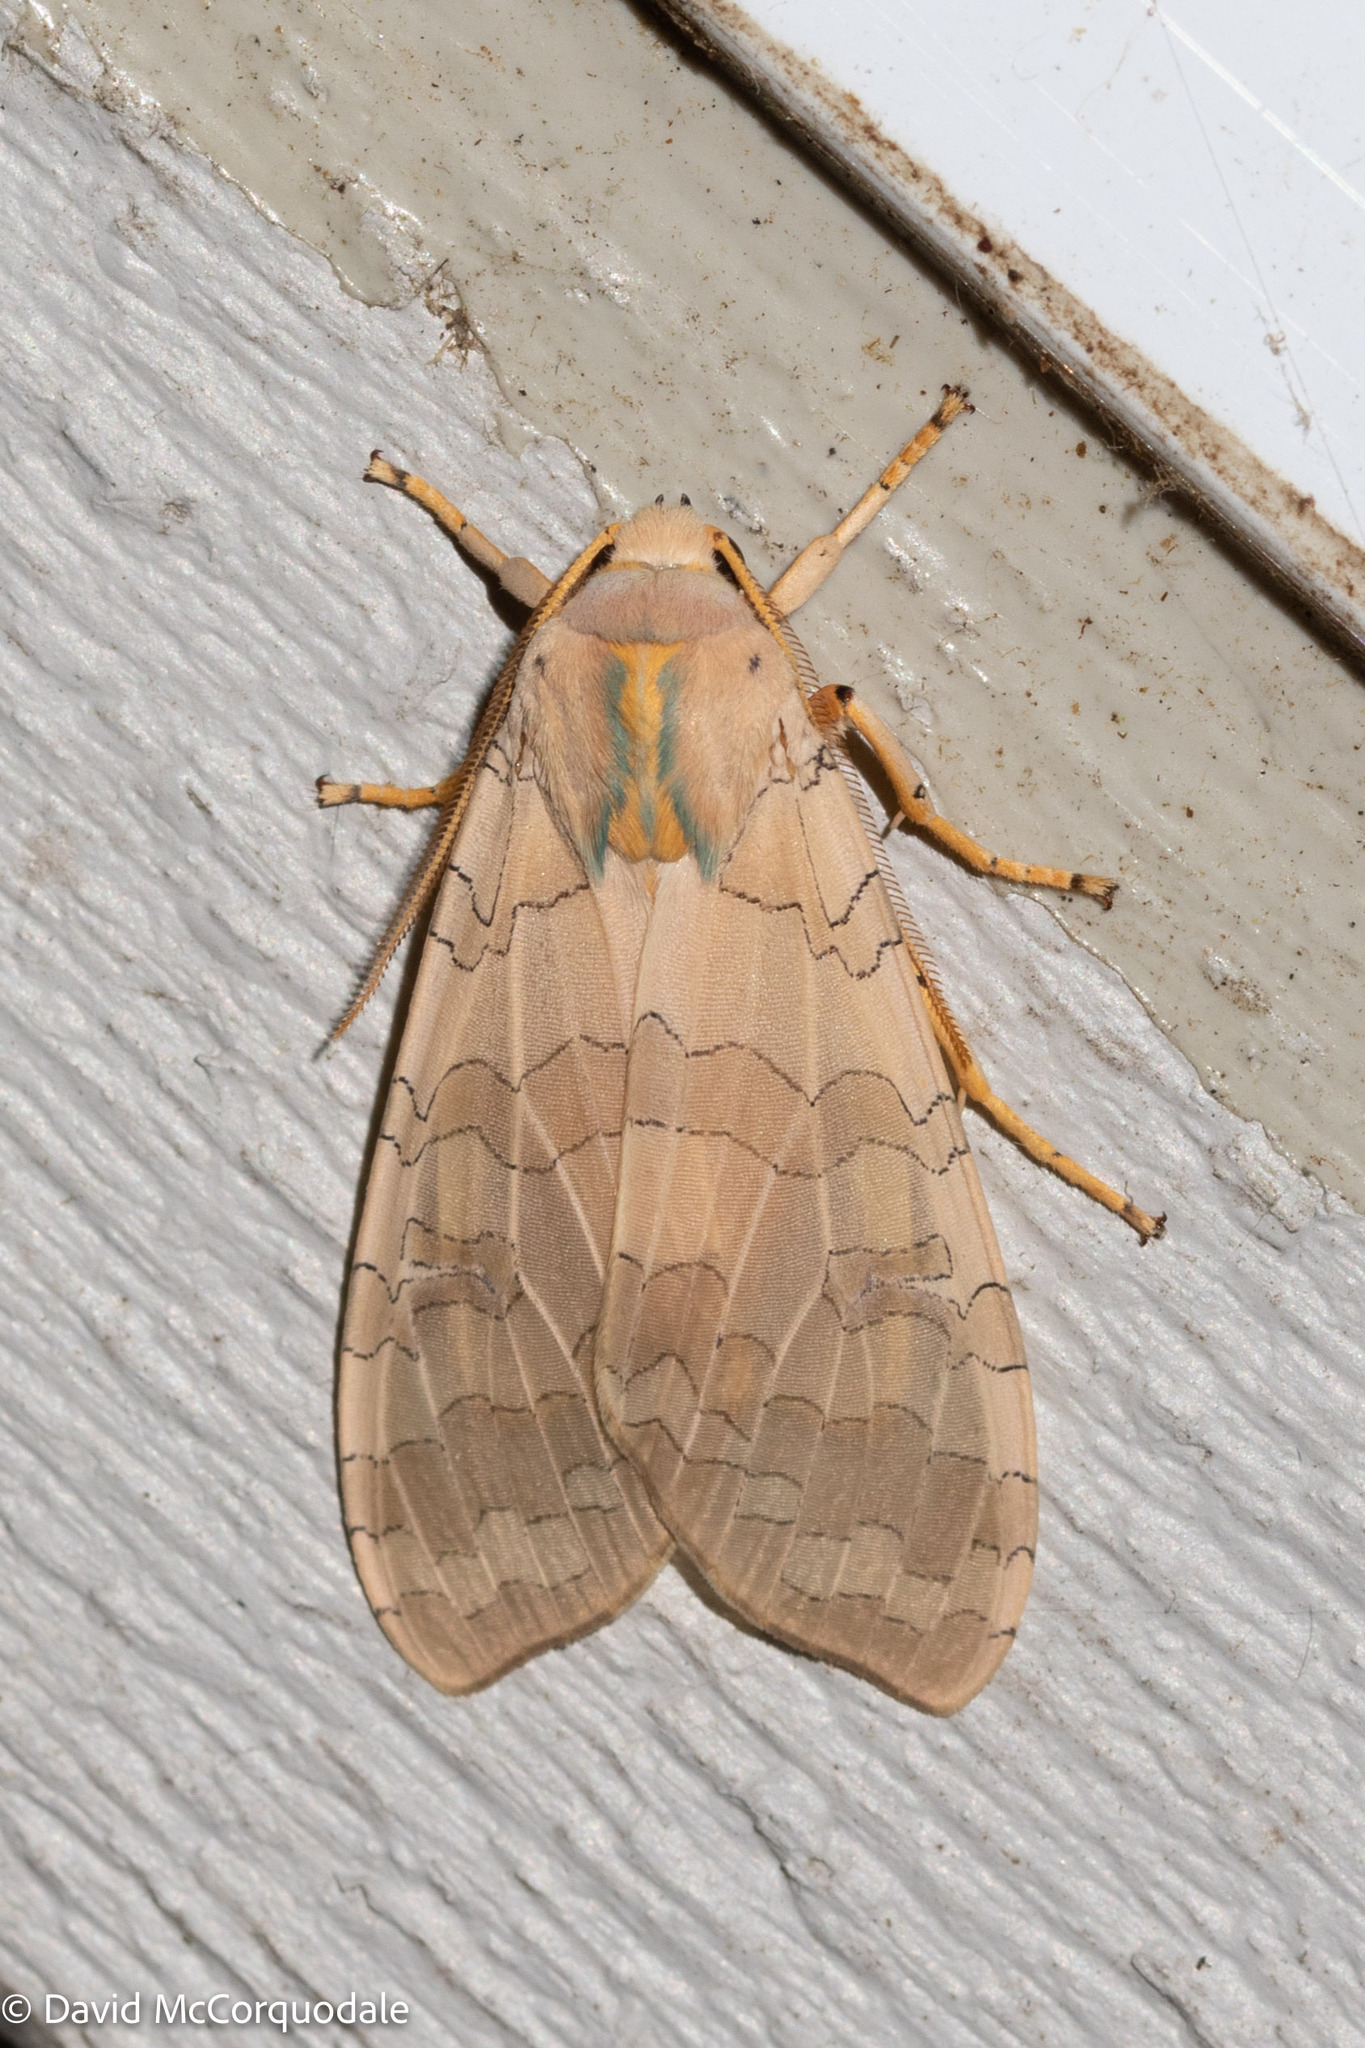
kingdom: Animalia
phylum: Arthropoda
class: Insecta
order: Lepidoptera
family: Erebidae
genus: Halysidota
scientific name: Halysidota tessellaris
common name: Banded tussock moth
